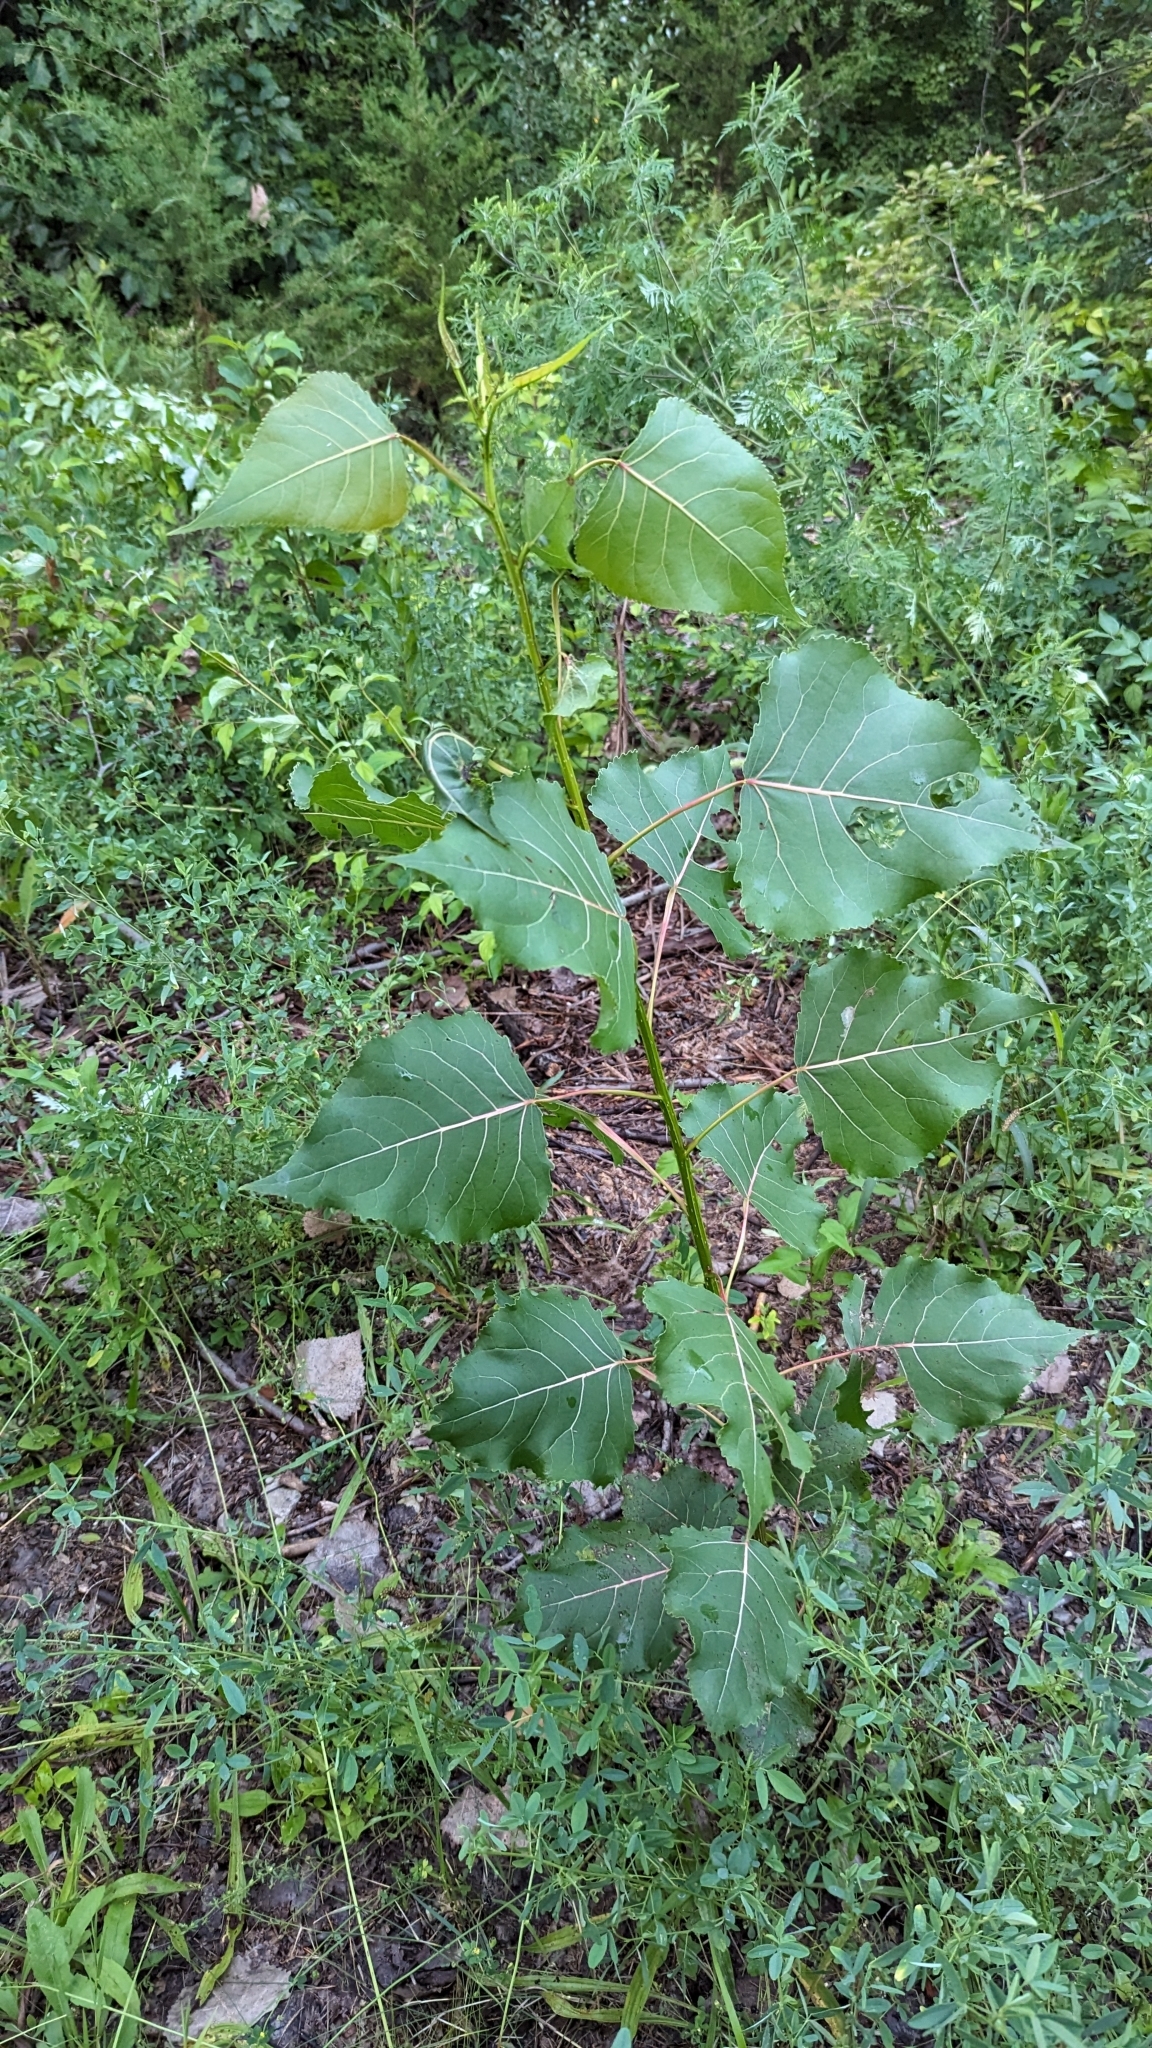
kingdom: Plantae
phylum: Tracheophyta
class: Magnoliopsida
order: Malpighiales
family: Salicaceae
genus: Populus
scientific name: Populus deltoides
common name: Eastern cottonwood
